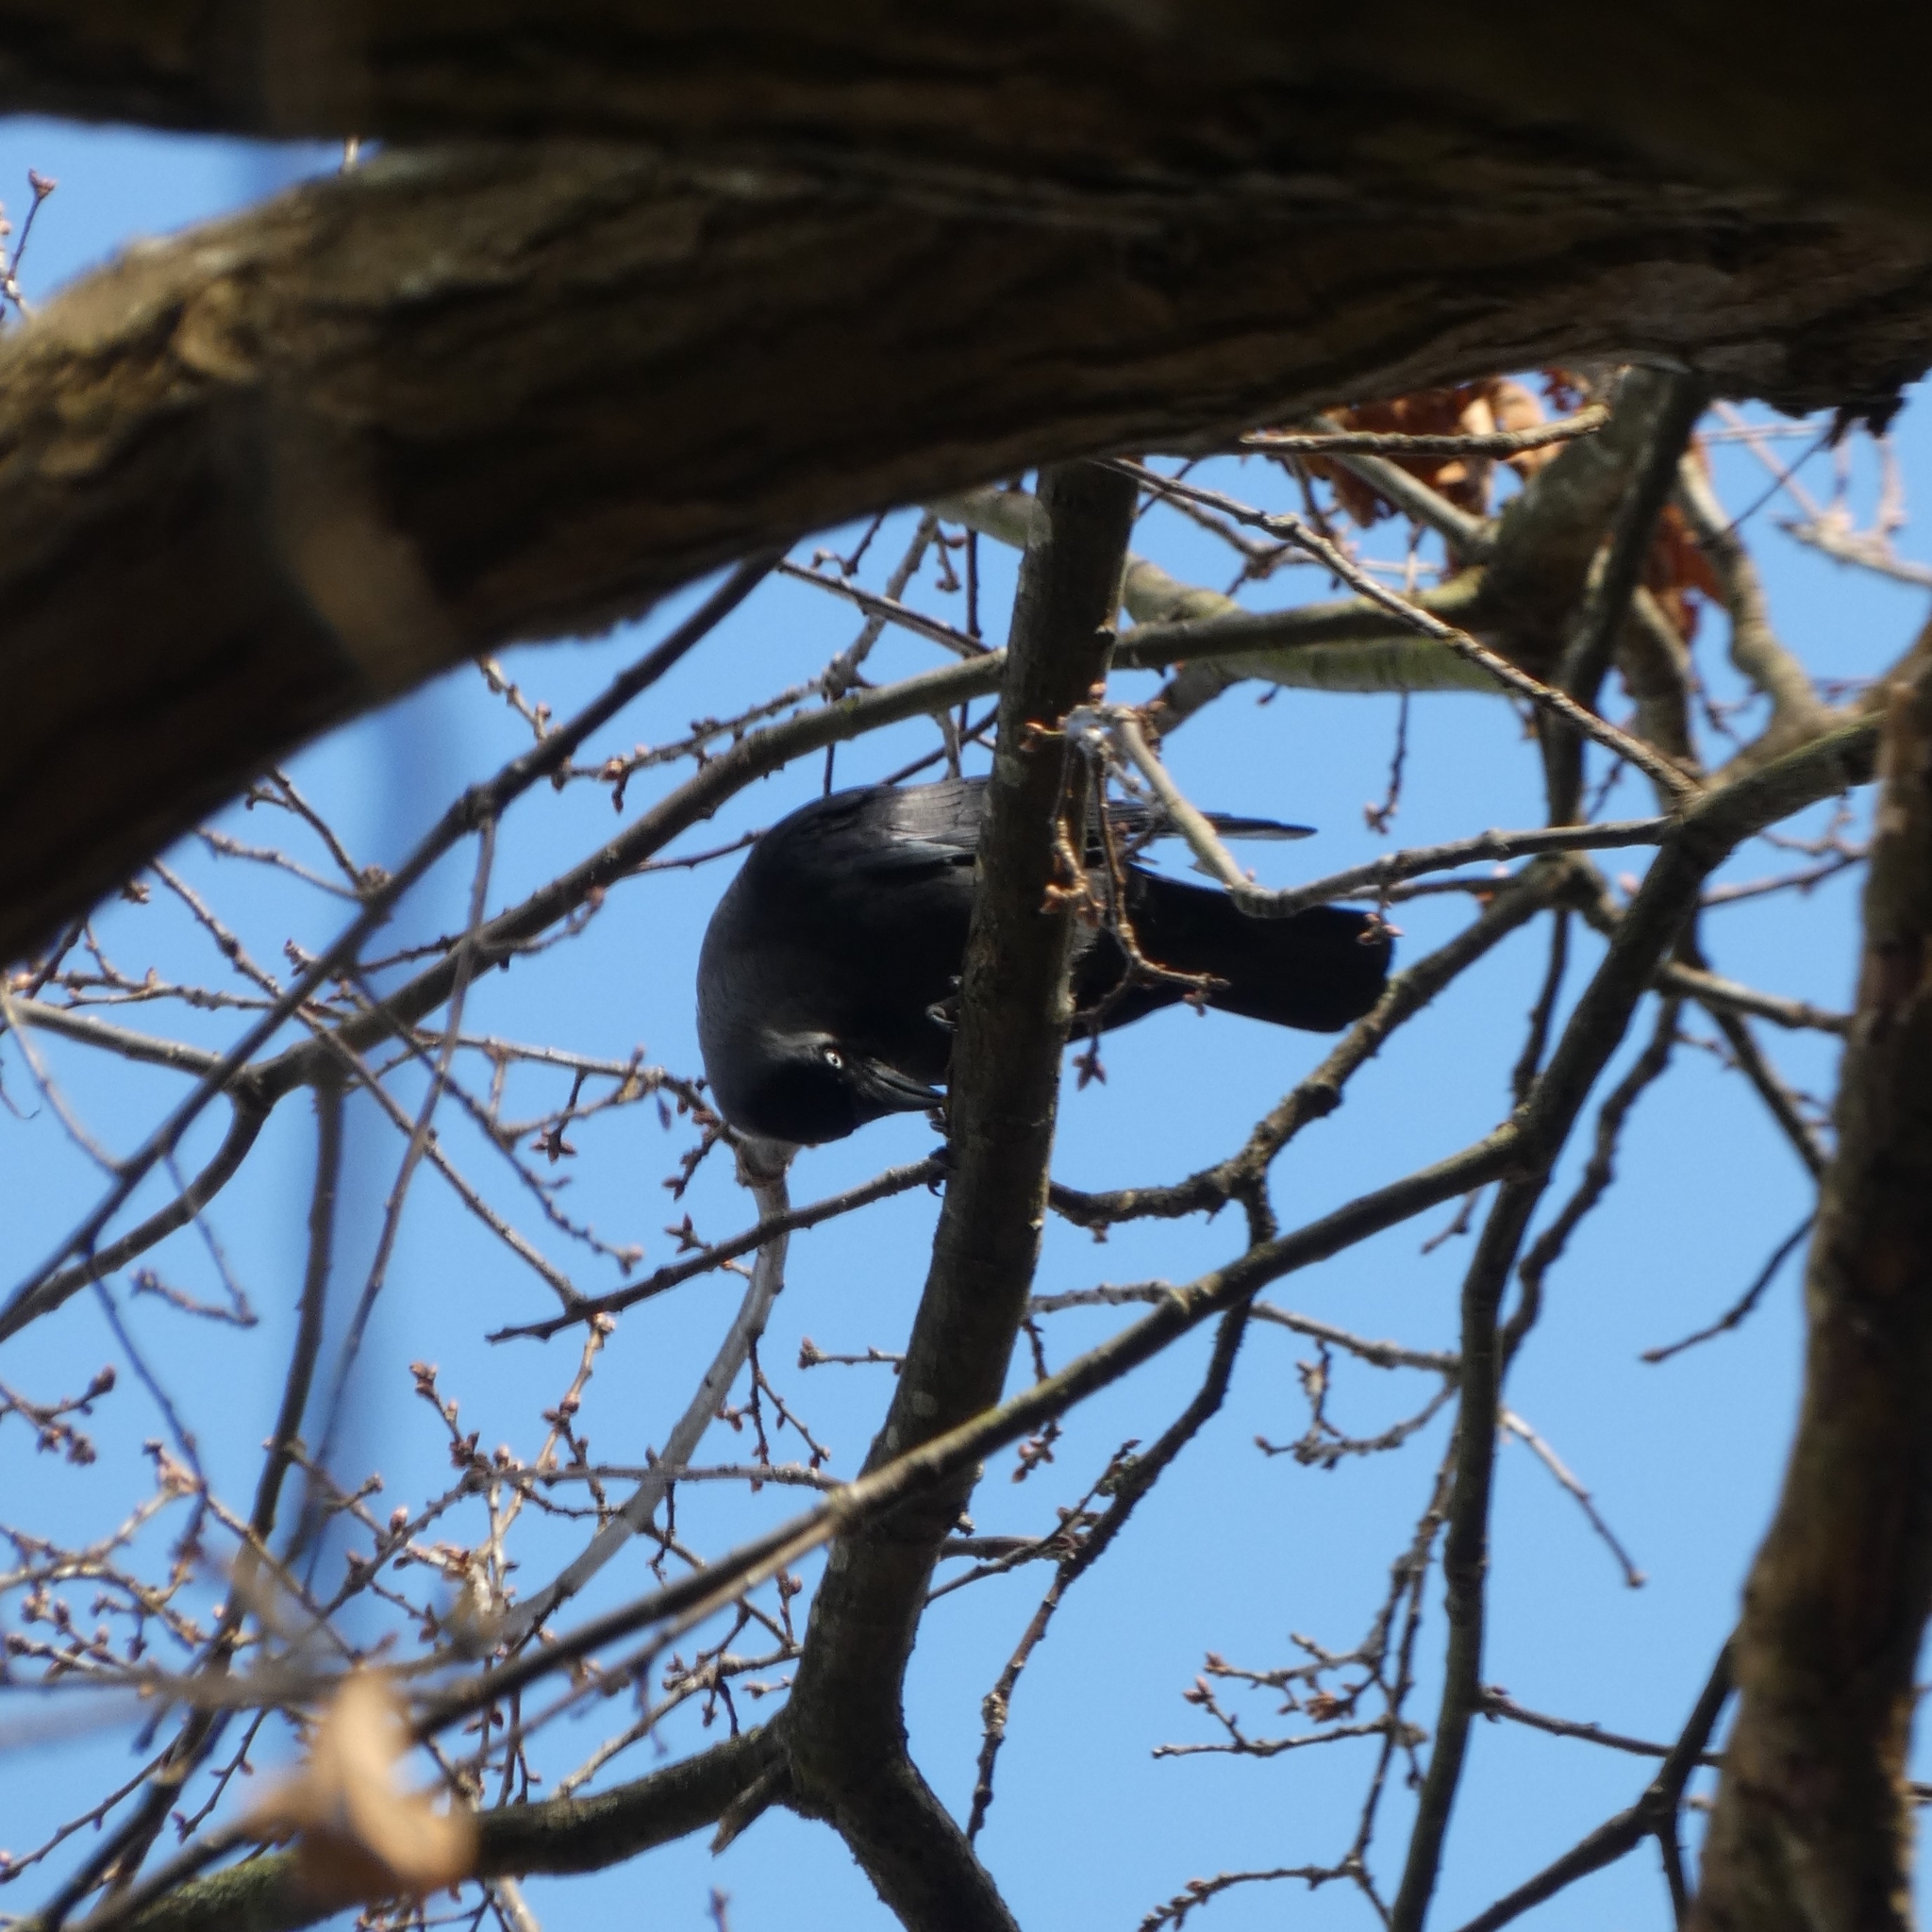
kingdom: Animalia
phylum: Chordata
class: Aves
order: Passeriformes
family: Corvidae
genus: Coloeus
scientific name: Coloeus monedula
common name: Western jackdaw
